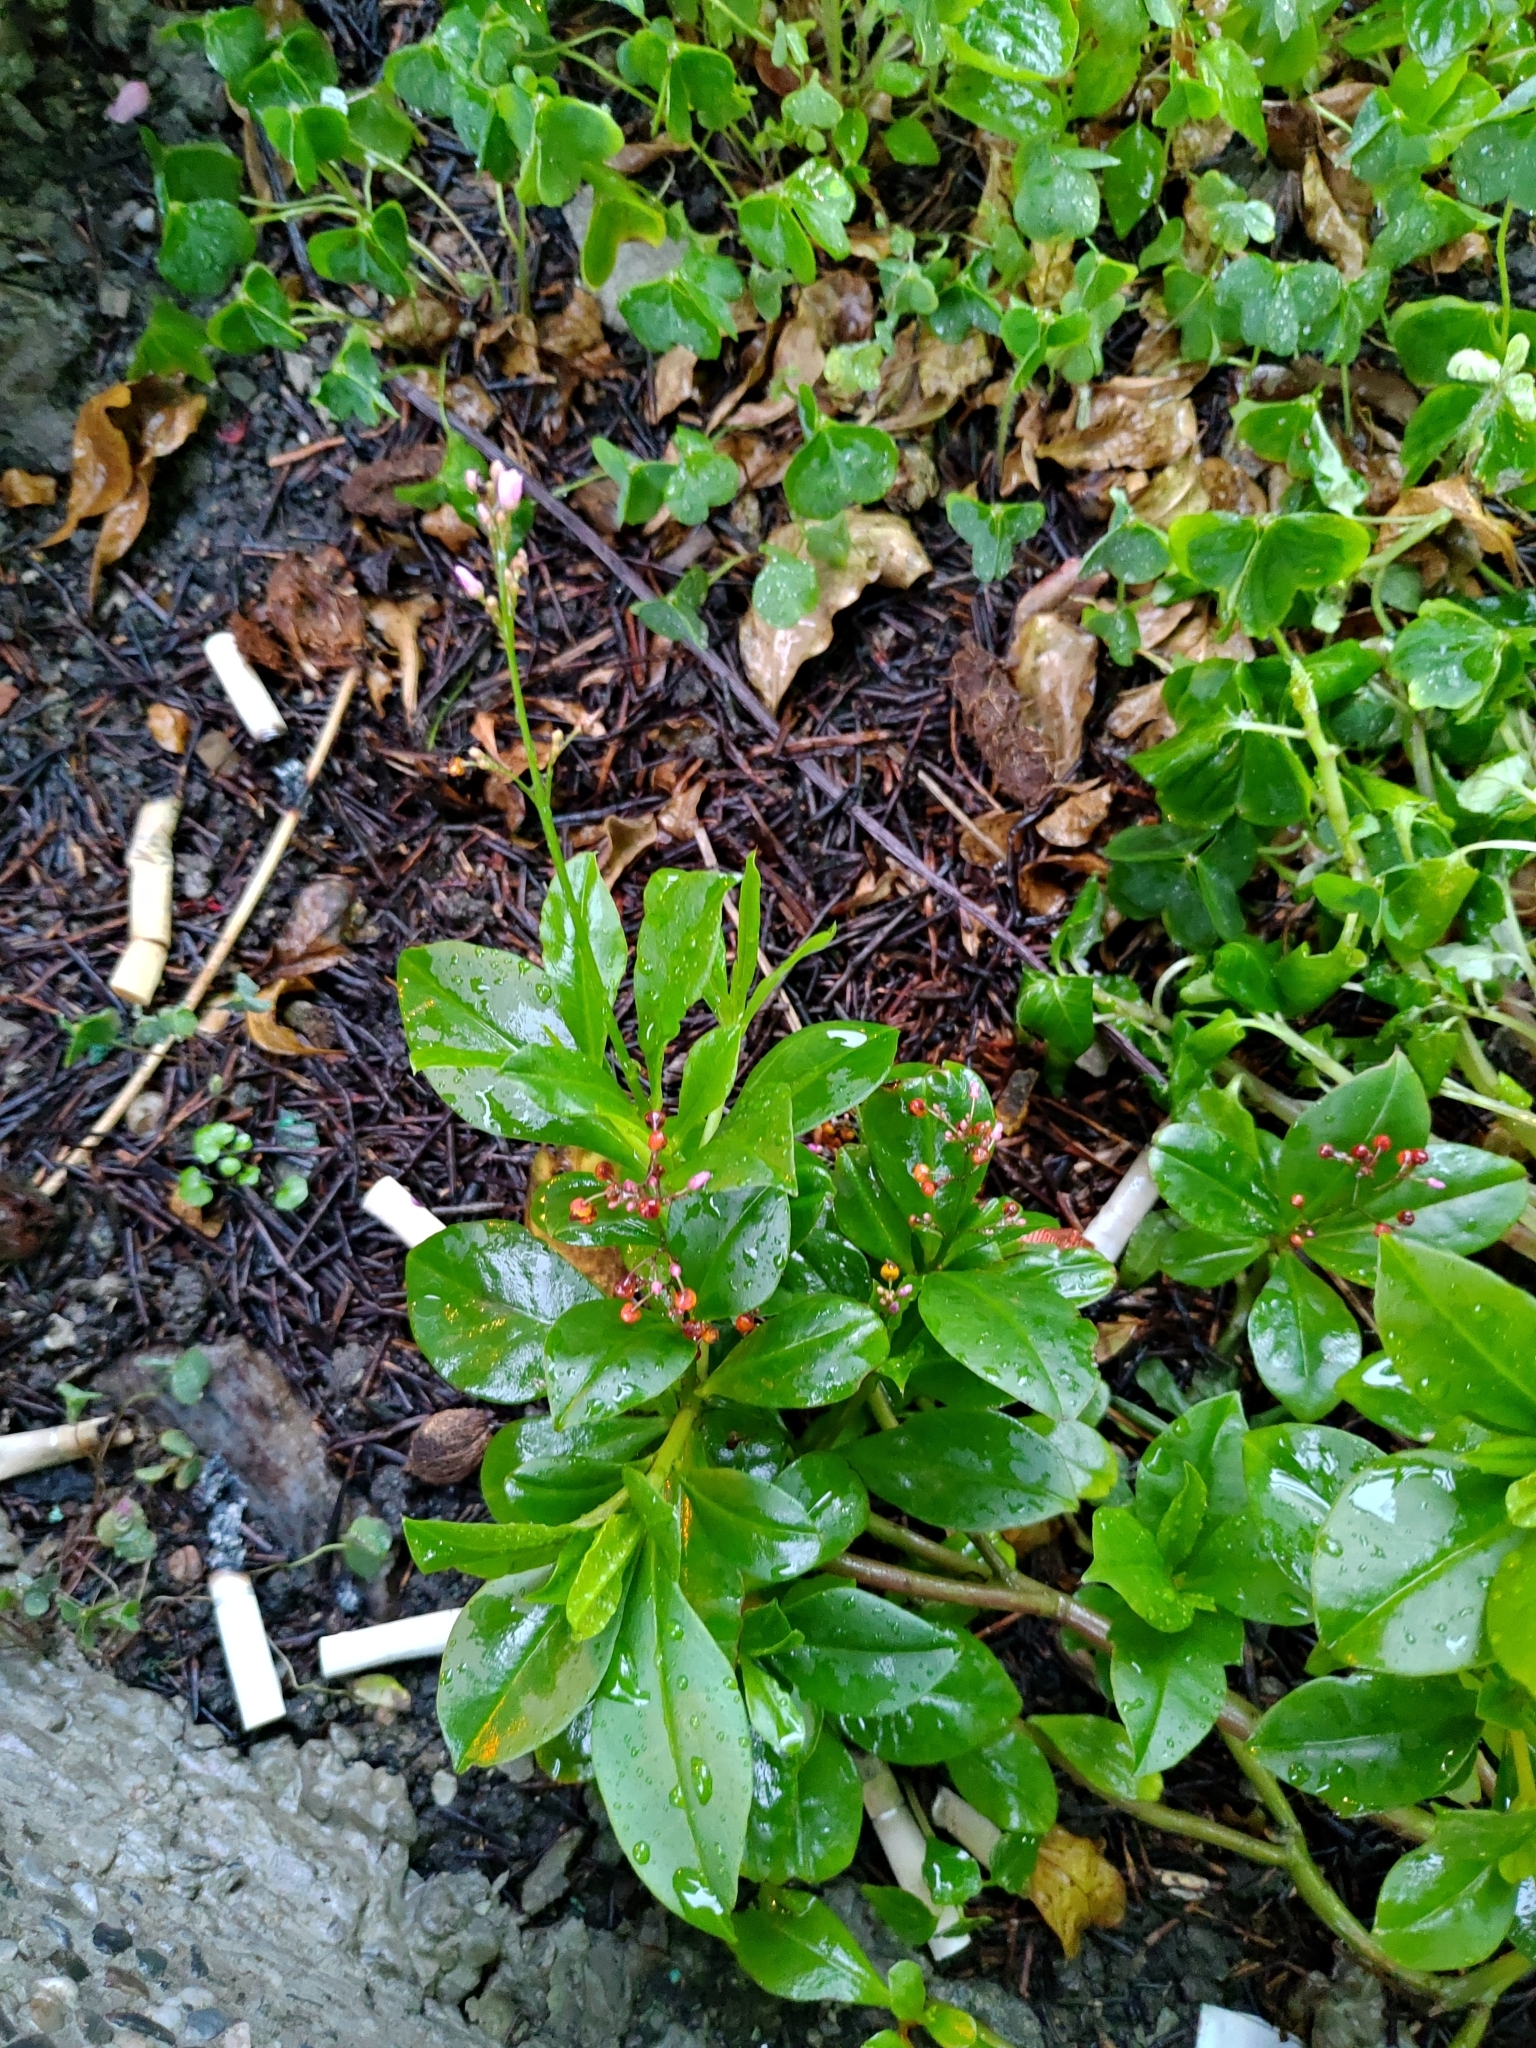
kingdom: Plantae
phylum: Tracheophyta
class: Magnoliopsida
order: Caryophyllales
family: Talinaceae
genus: Talinum
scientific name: Talinum paniculatum
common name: Jewels of opar
